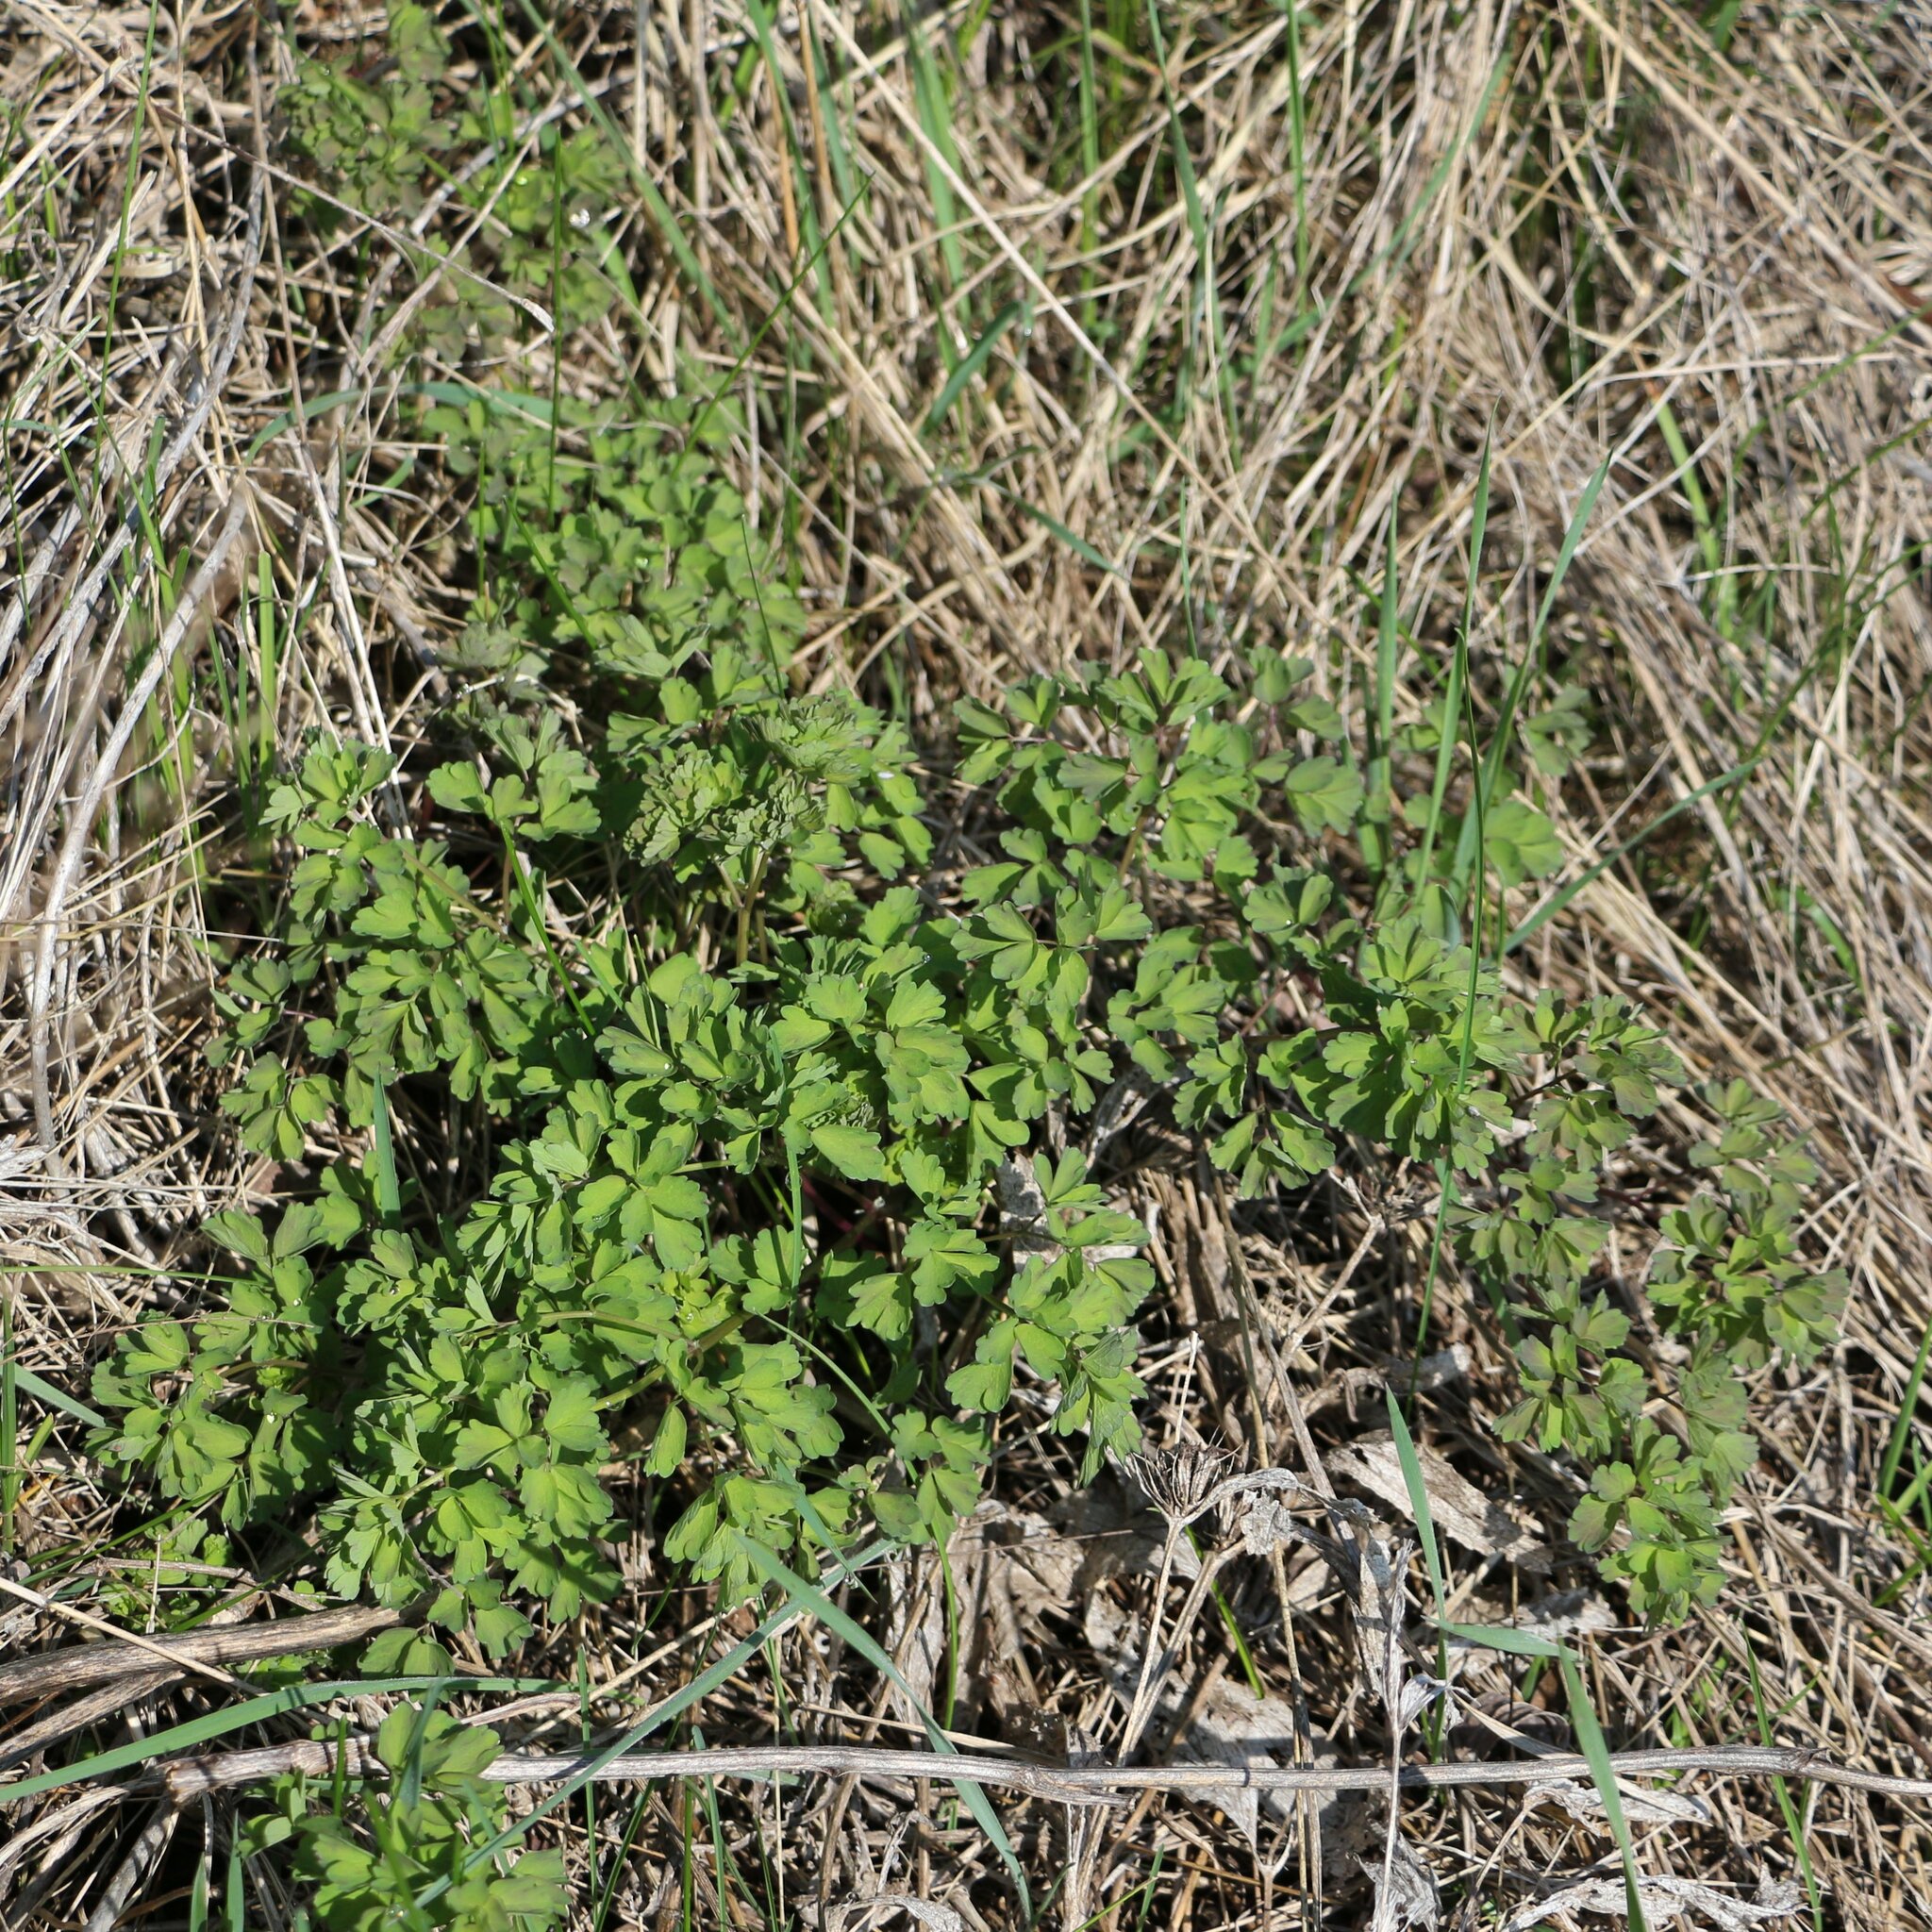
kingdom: Plantae
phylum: Tracheophyta
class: Magnoliopsida
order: Ranunculales
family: Ranunculaceae
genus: Thalictrum
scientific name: Thalictrum minus
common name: Lesser meadow-rue
